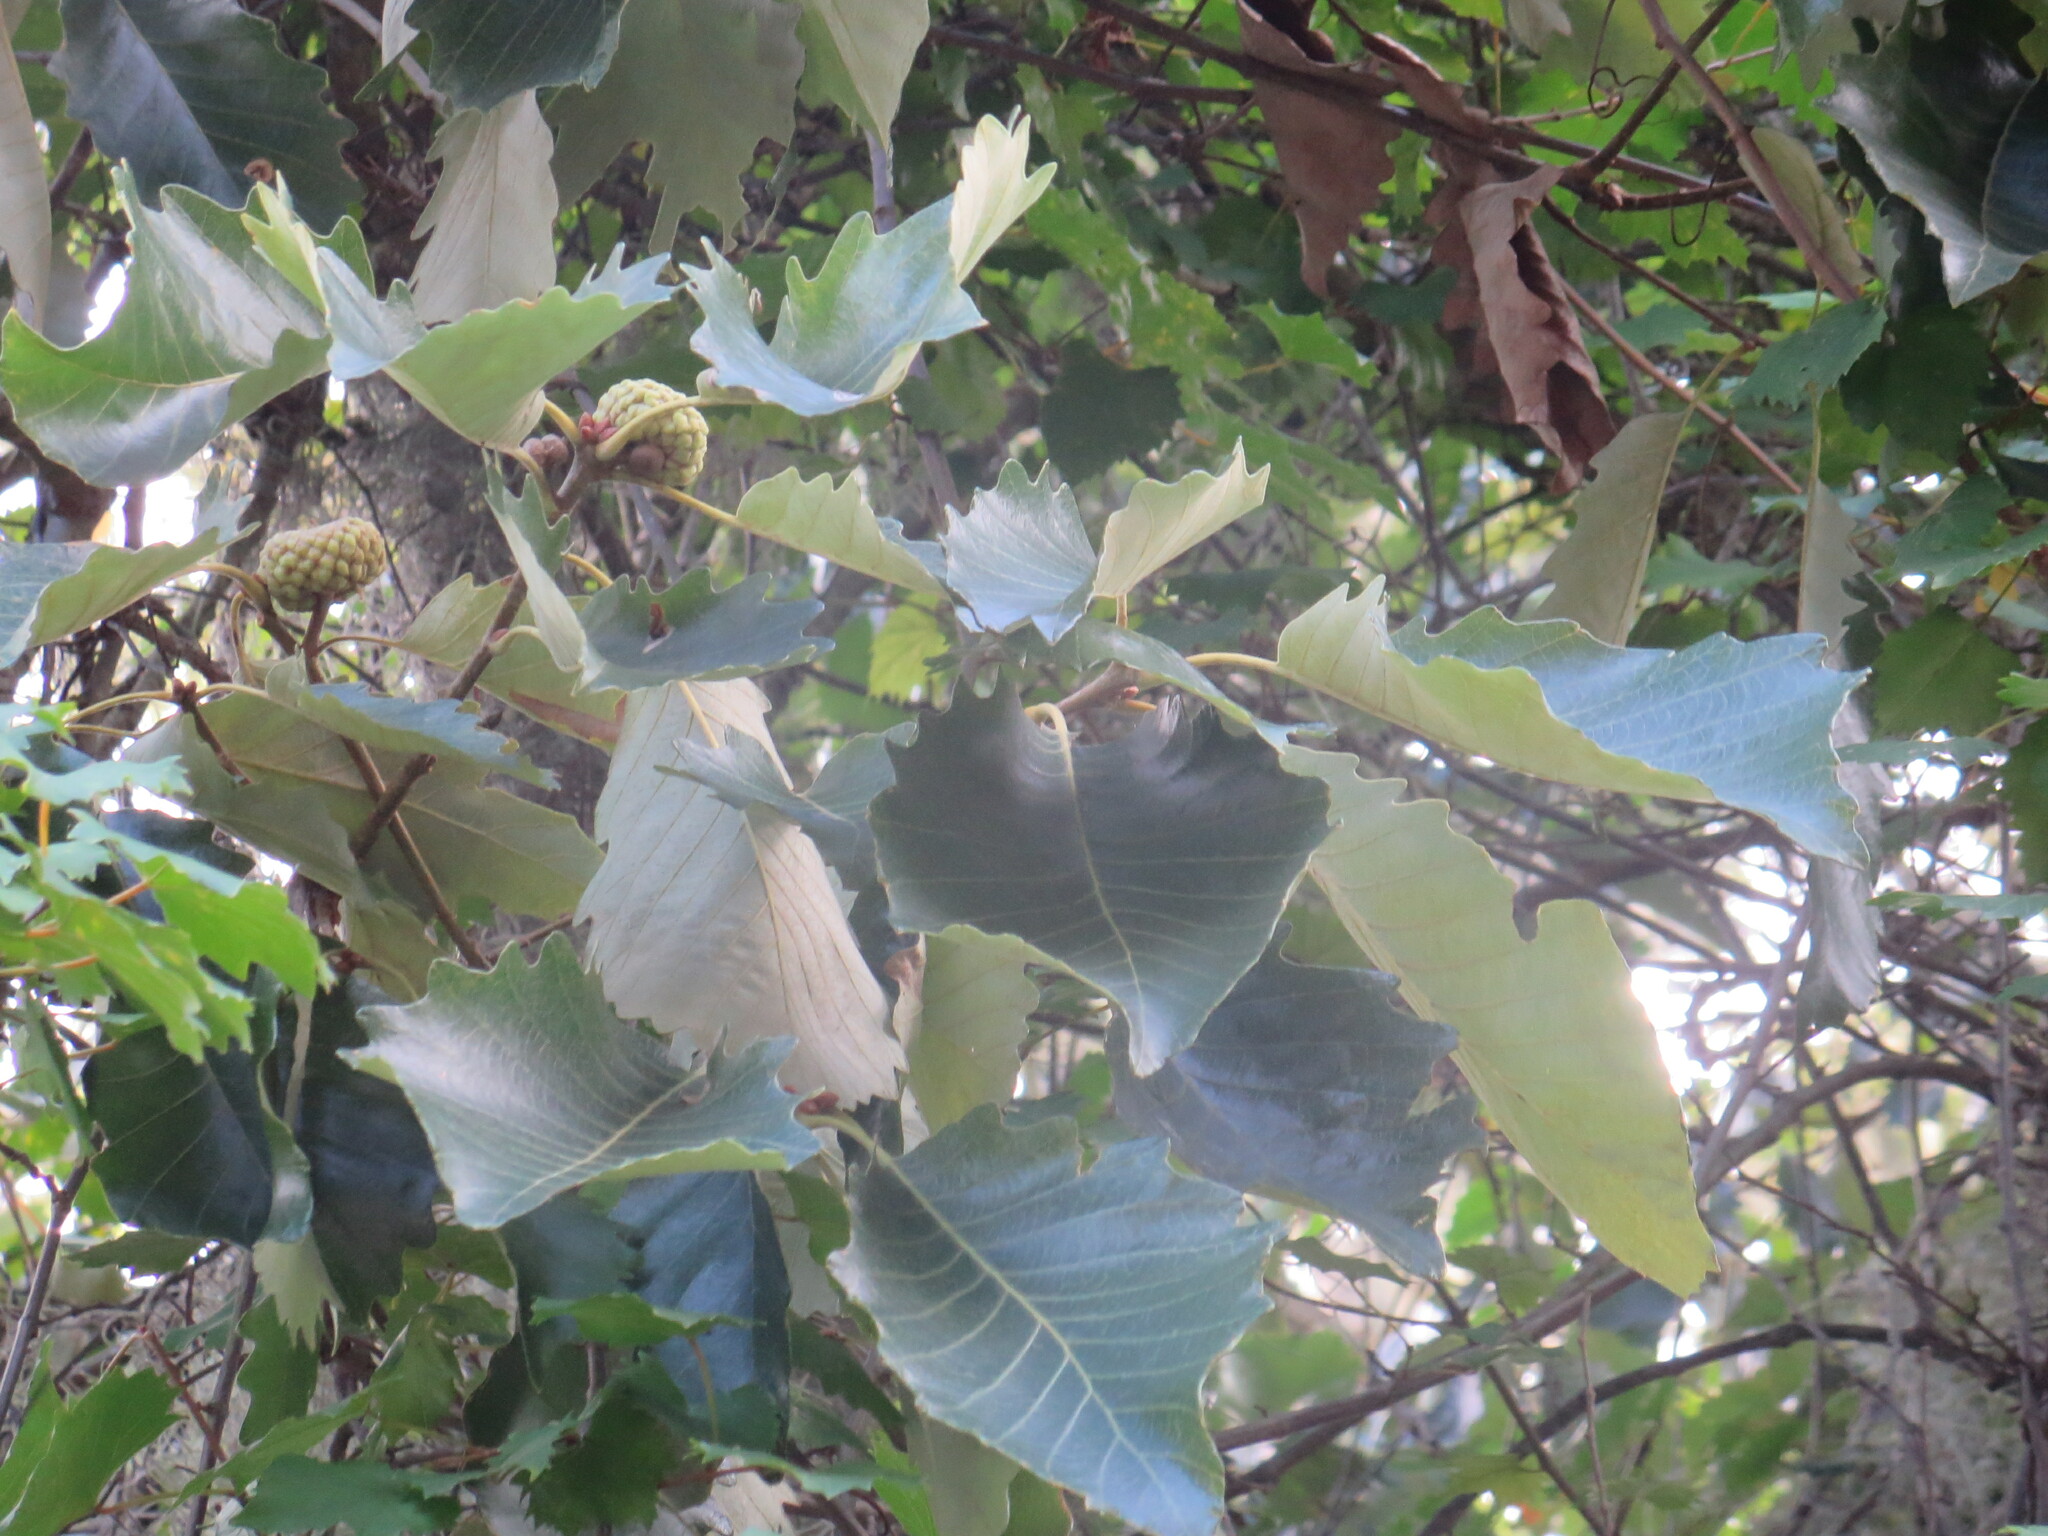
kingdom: Plantae
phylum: Tracheophyta
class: Magnoliopsida
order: Fagales
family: Fagaceae
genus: Quercus
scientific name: Quercus michauxii
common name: Swamp chestnut oak
